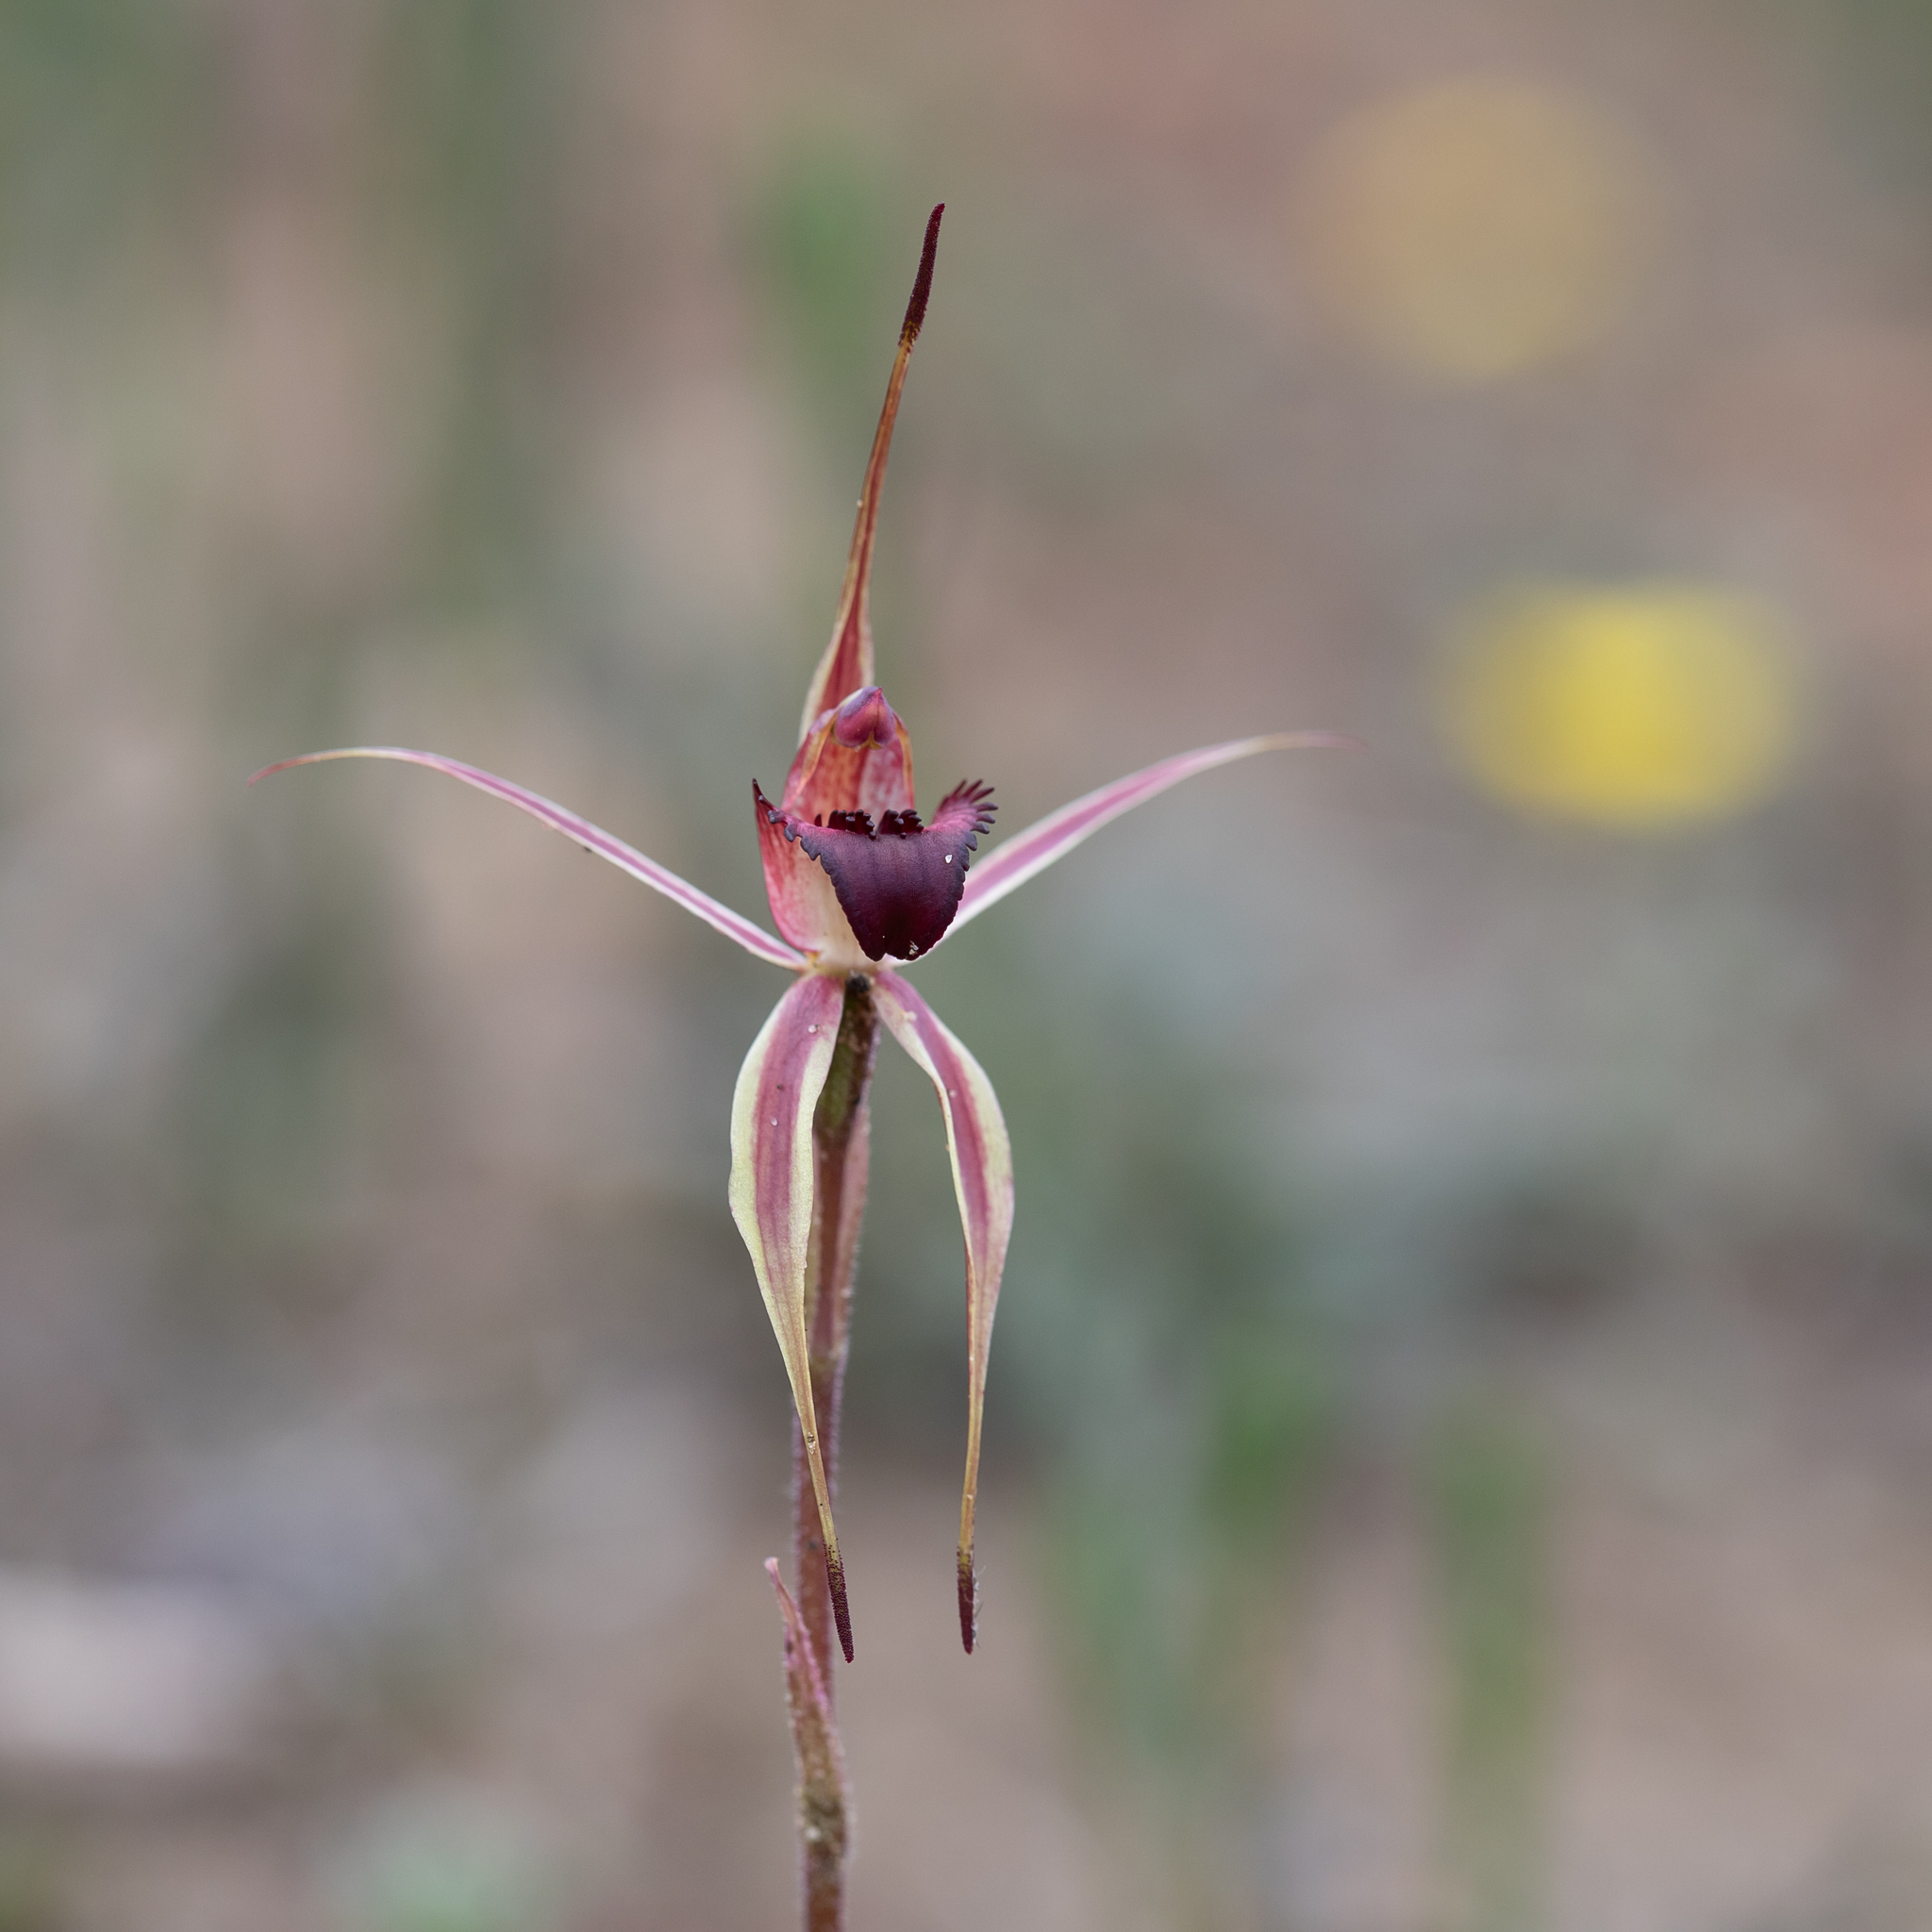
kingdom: Plantae
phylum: Tracheophyta
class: Liliopsida
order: Asparagales
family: Orchidaceae
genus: Caladenia
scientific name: Caladenia reticulata
